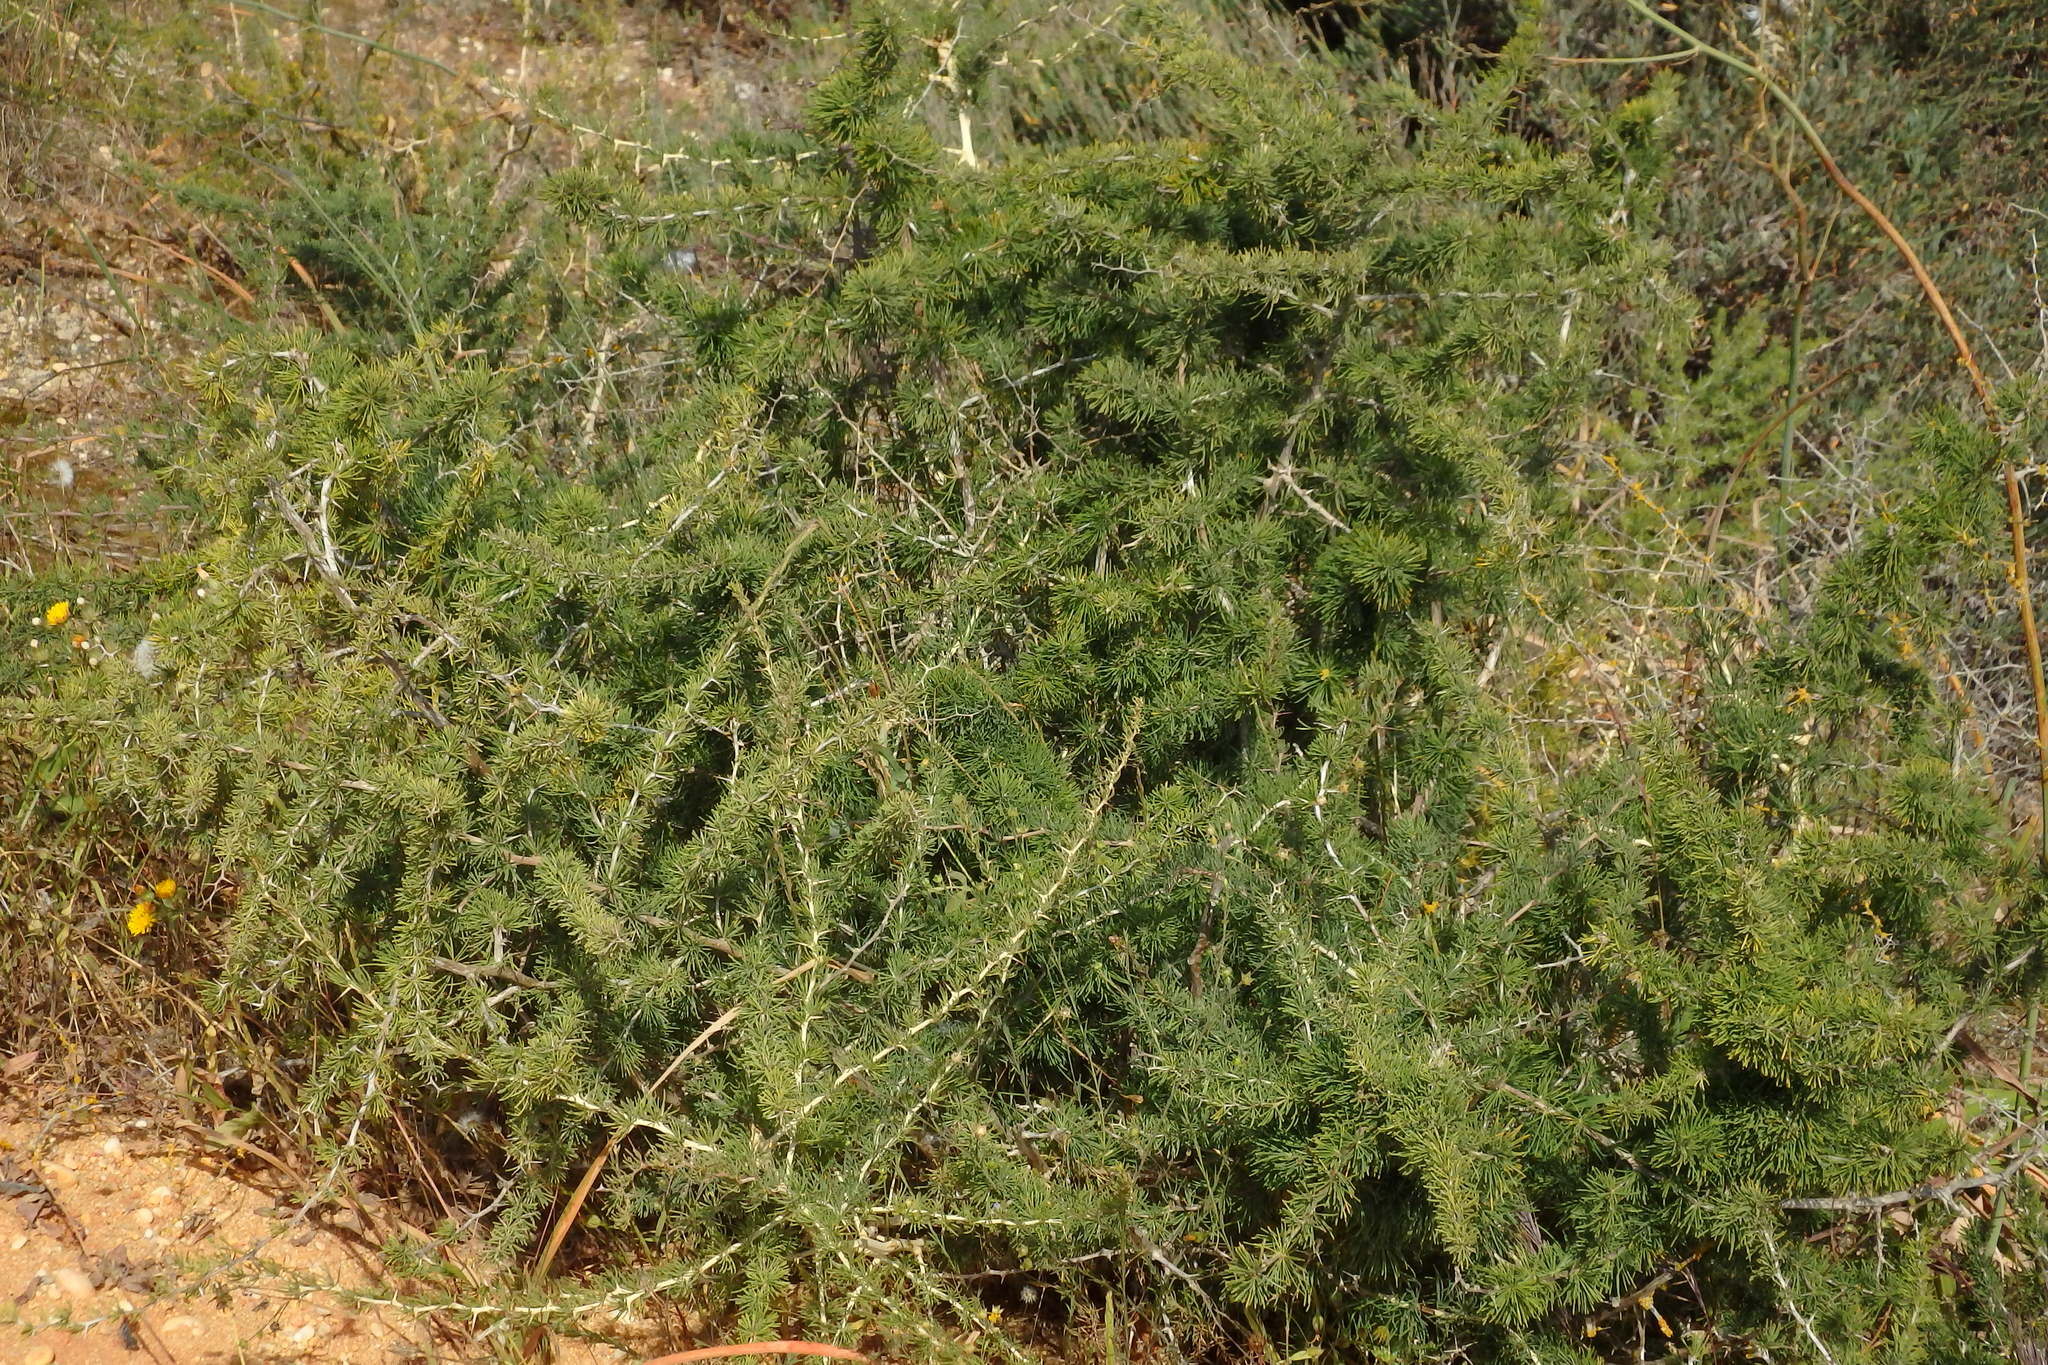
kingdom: Plantae
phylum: Tracheophyta
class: Liliopsida
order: Asparagales
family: Asparagaceae
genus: Asparagus
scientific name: Asparagus albus
